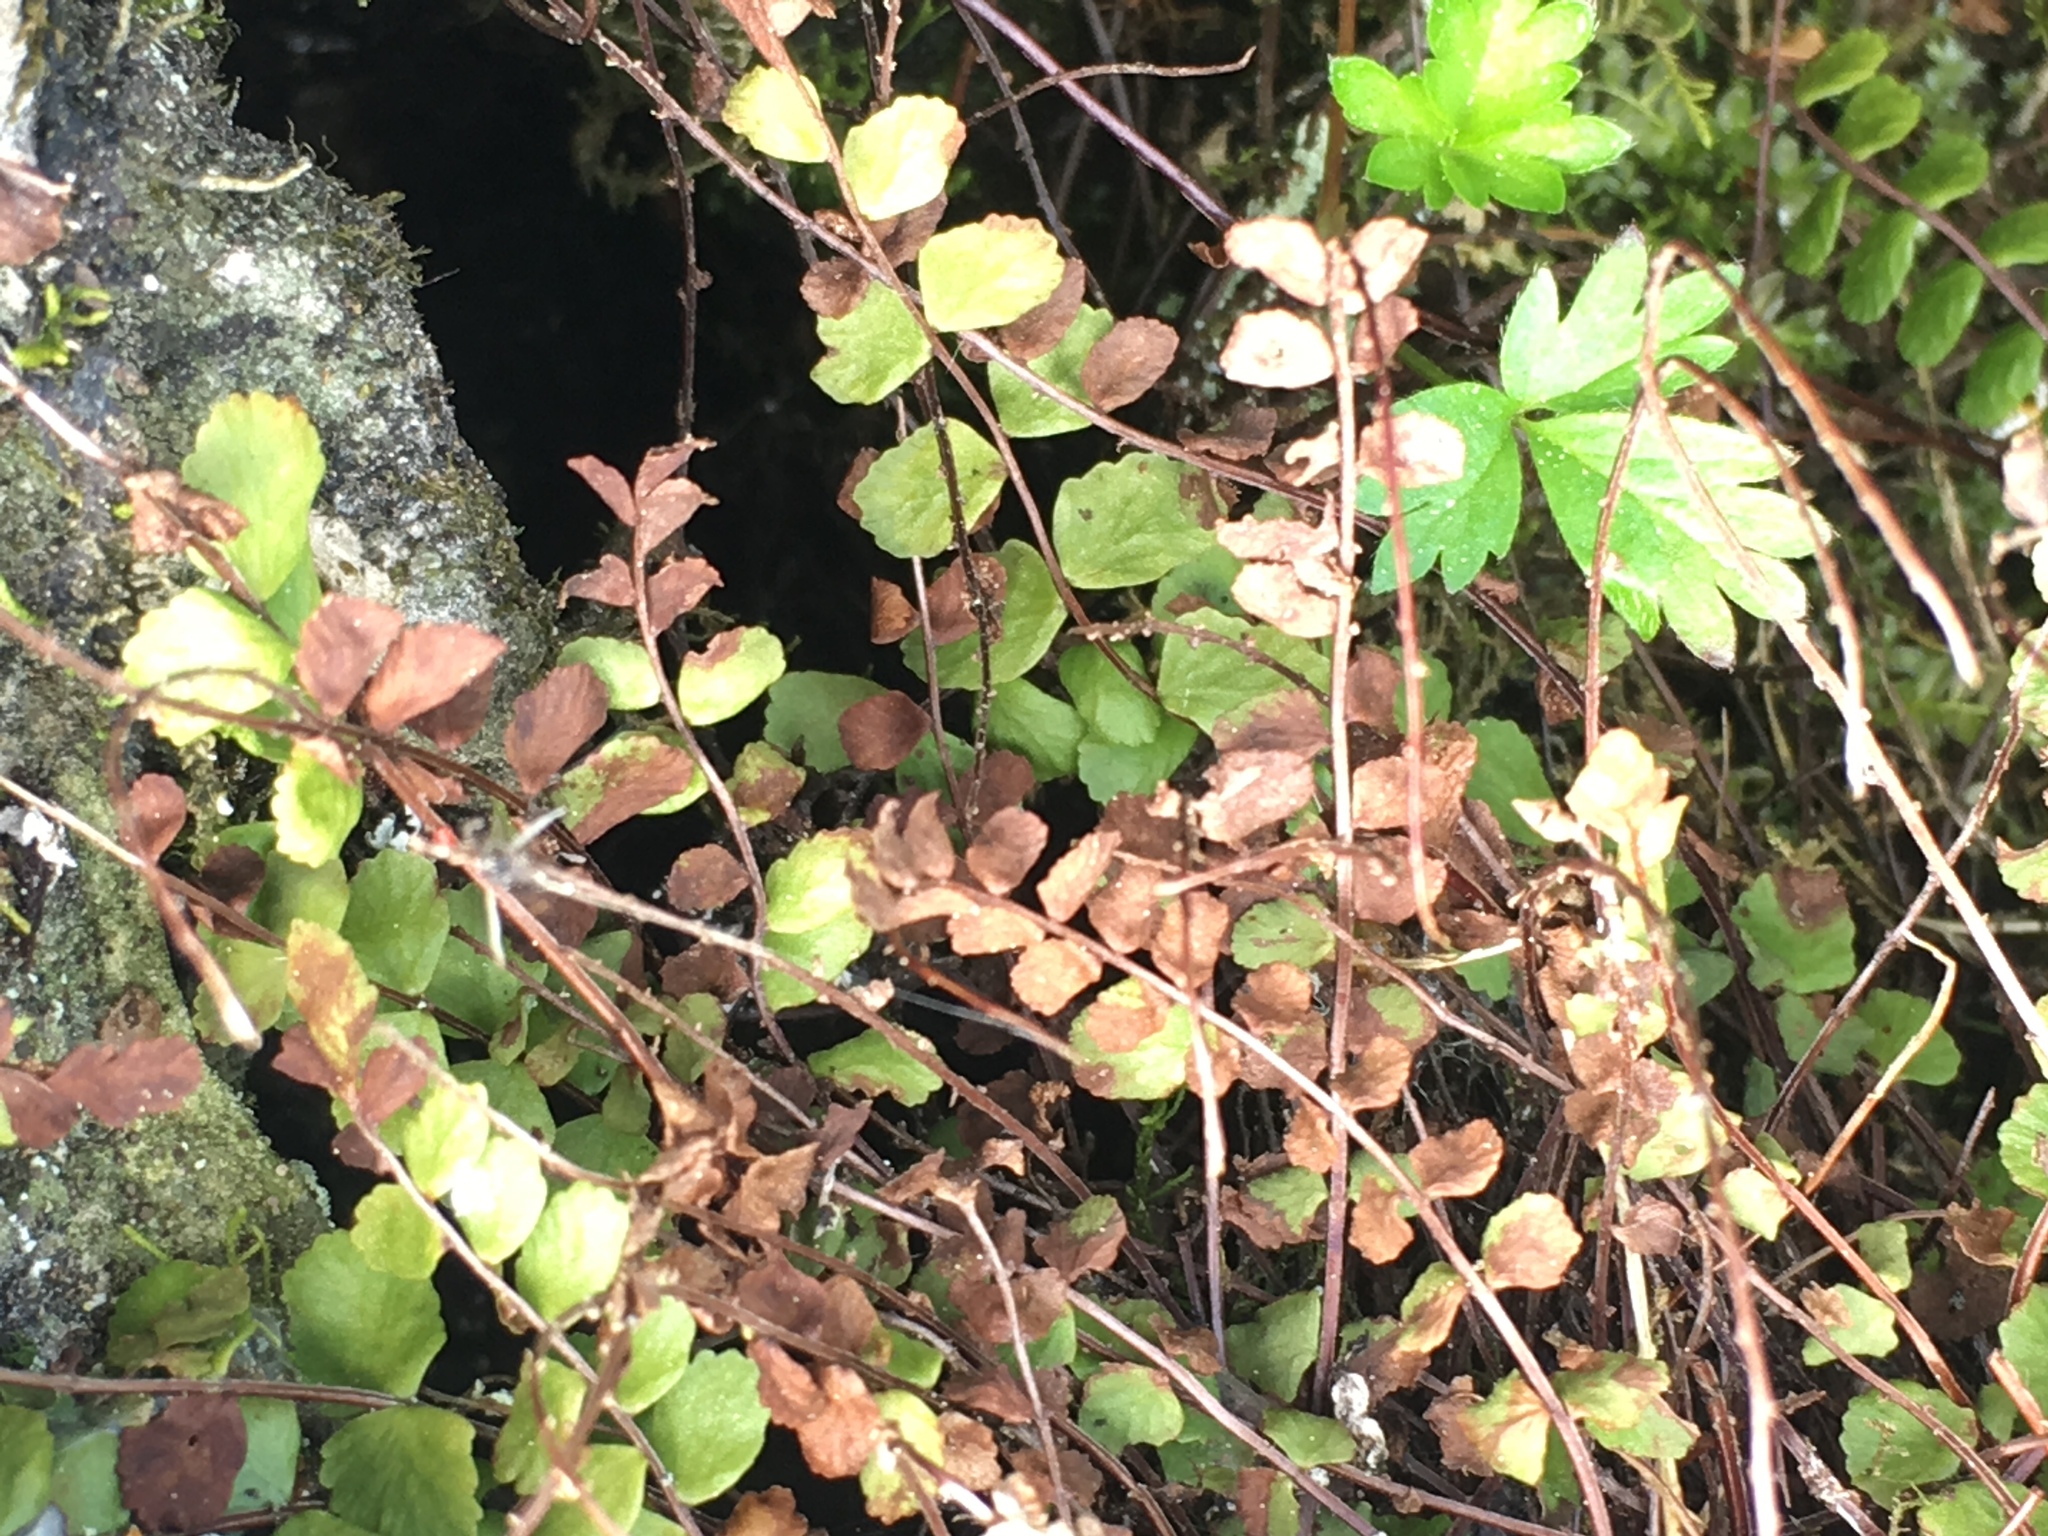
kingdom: Plantae
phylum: Tracheophyta
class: Polypodiopsida
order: Polypodiales
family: Aspleniaceae
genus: Asplenium
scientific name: Asplenium trichomanes
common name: Maidenhair spleenwort
